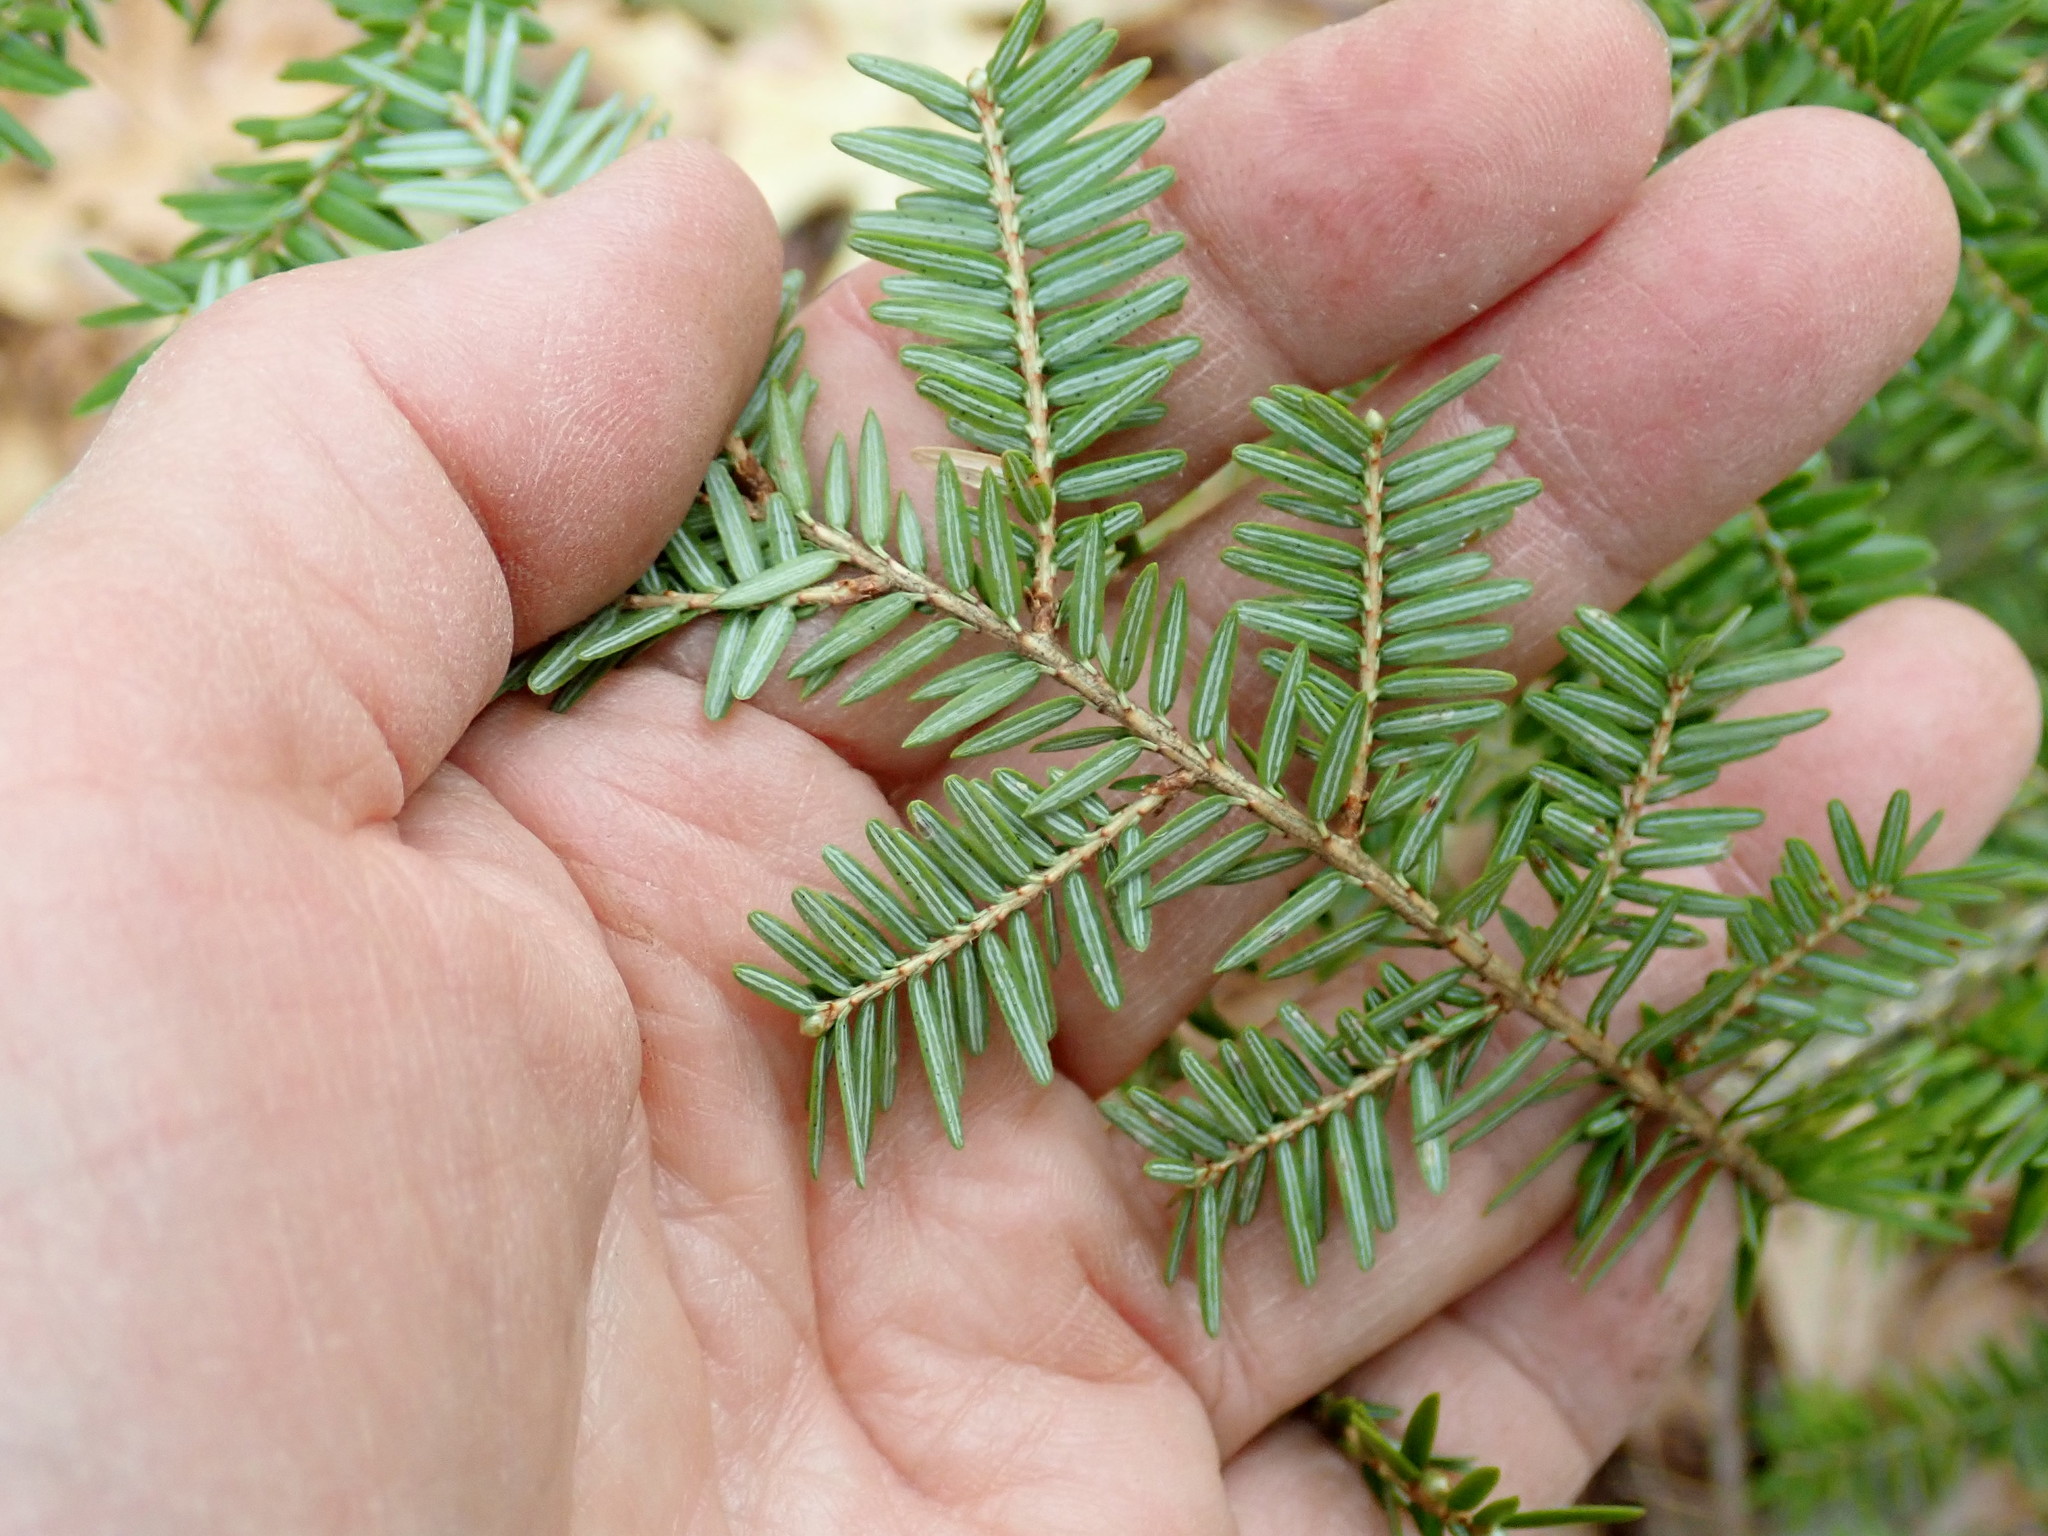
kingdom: Plantae
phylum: Tracheophyta
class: Pinopsida
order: Pinales
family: Pinaceae
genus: Tsuga
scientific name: Tsuga canadensis
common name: Eastern hemlock
